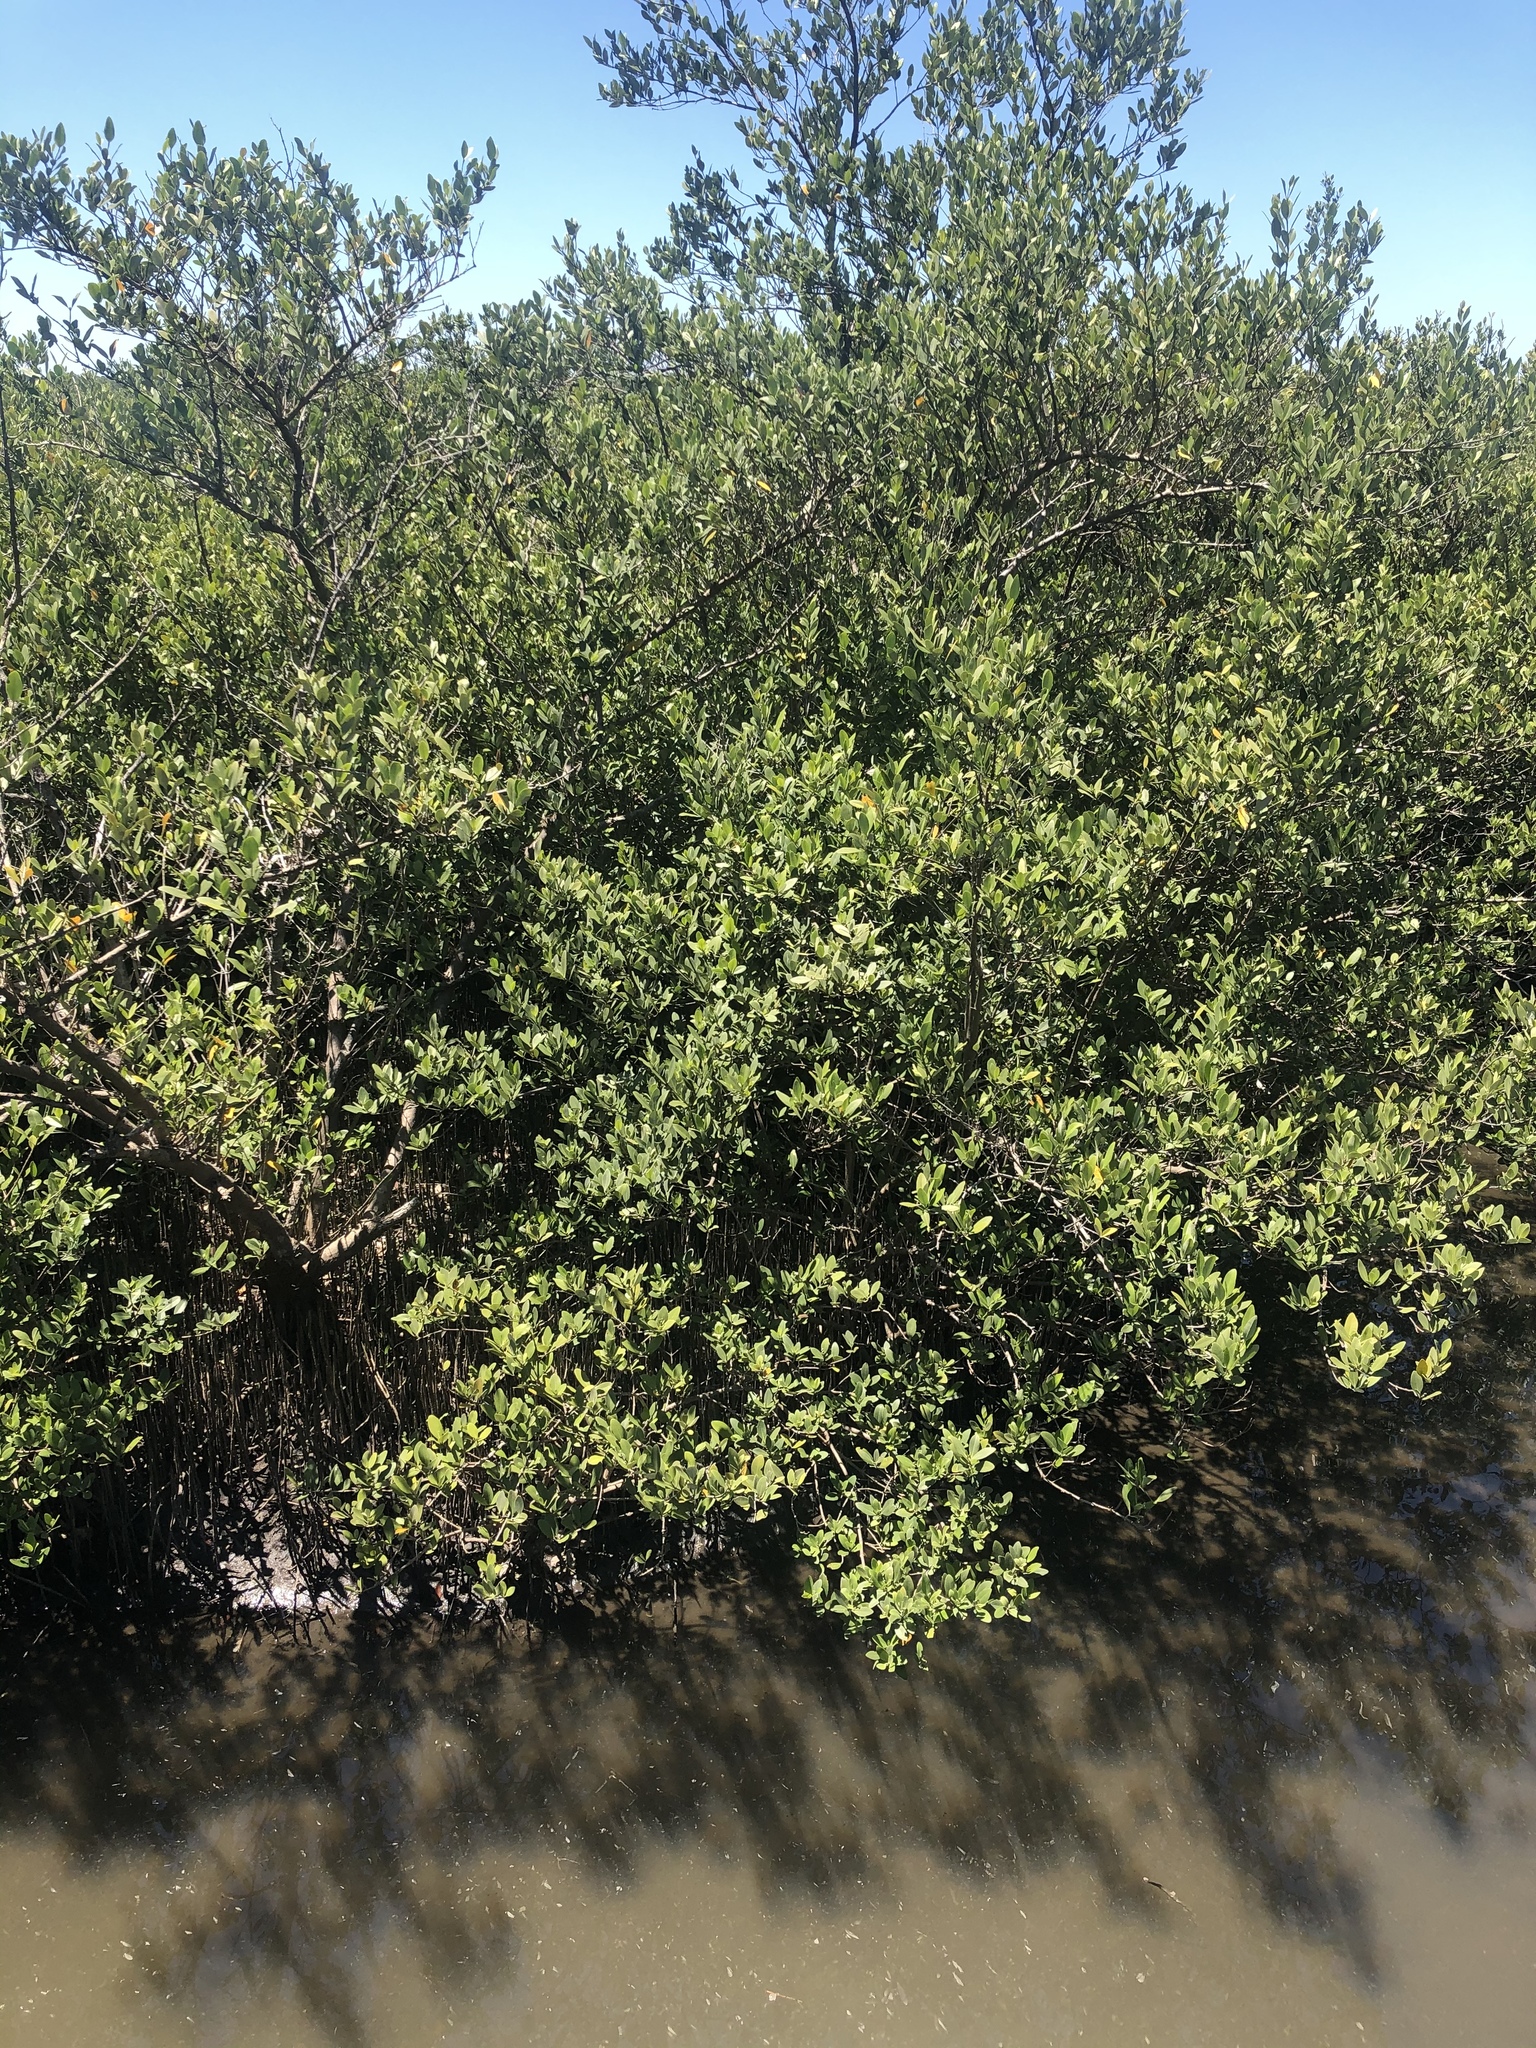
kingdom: Plantae
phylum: Tracheophyta
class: Magnoliopsida
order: Lamiales
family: Acanthaceae
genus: Avicennia
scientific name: Avicennia germinans
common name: Black mangrove
